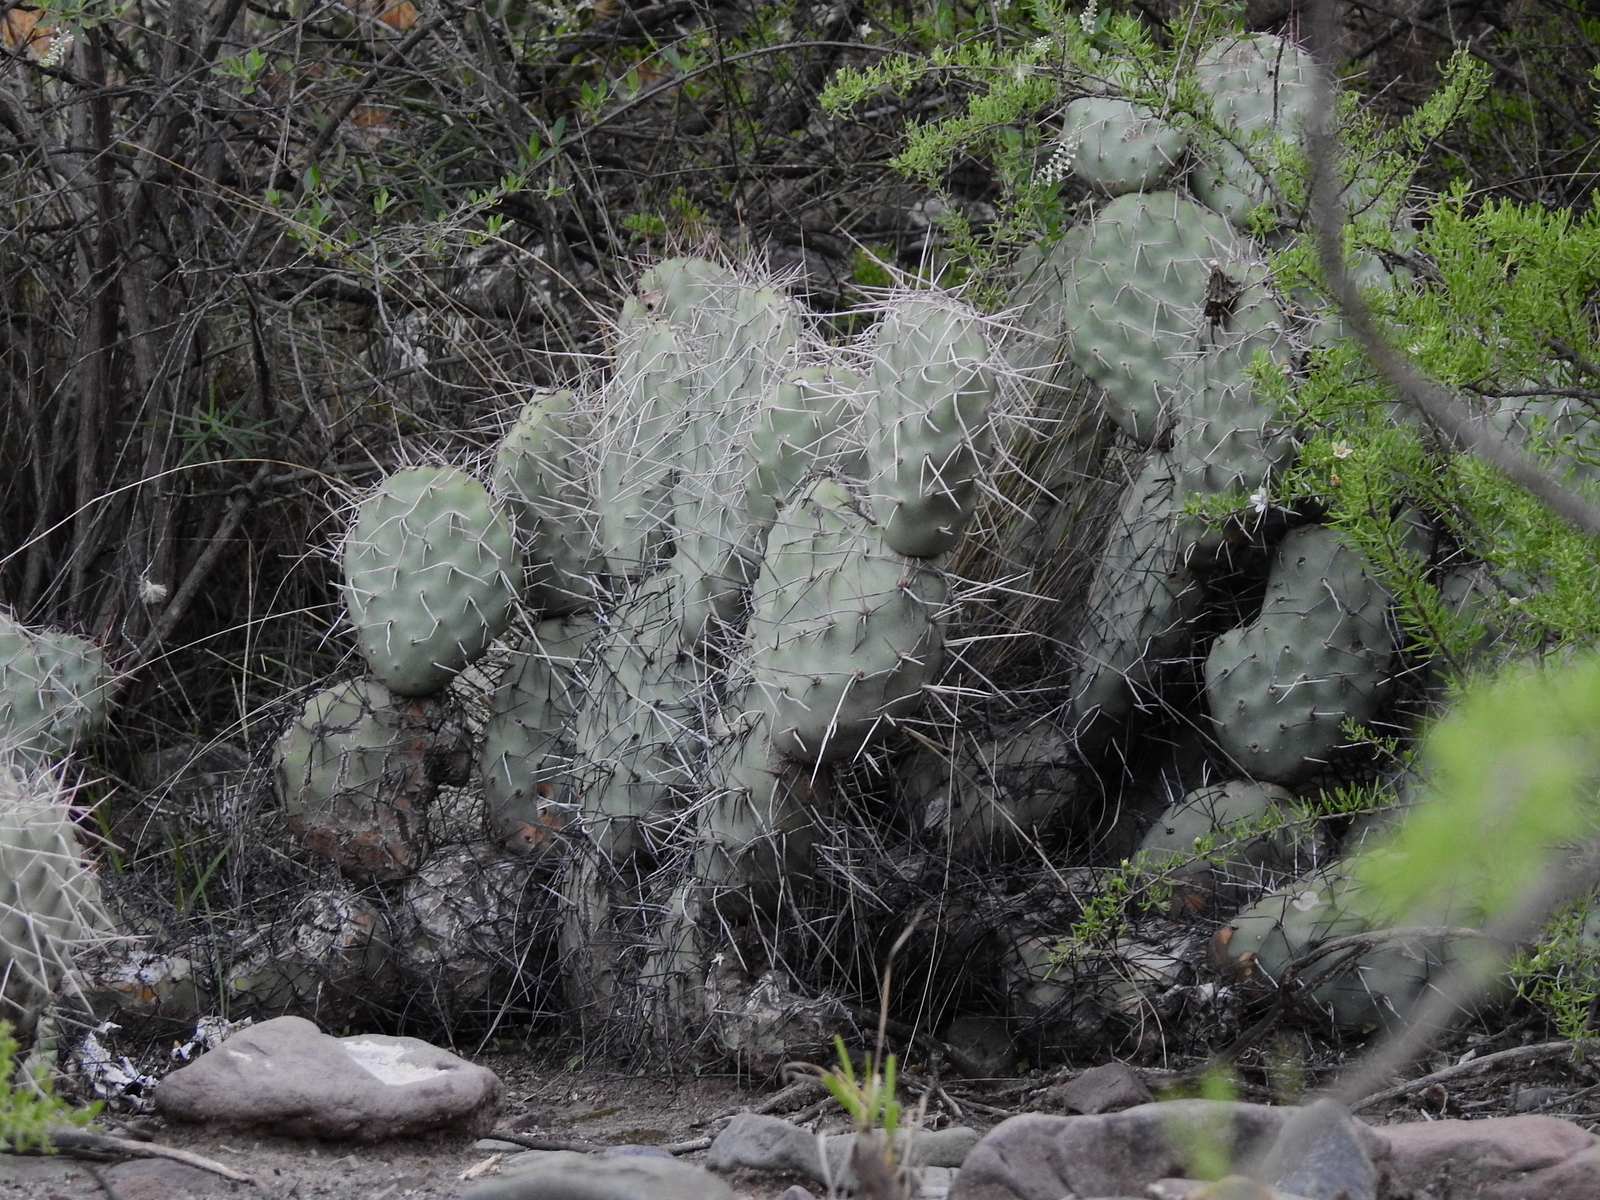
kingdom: Plantae
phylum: Tracheophyta
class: Magnoliopsida
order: Caryophyllales
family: Cactaceae
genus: Opuntia
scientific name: Opuntia sulphurea
